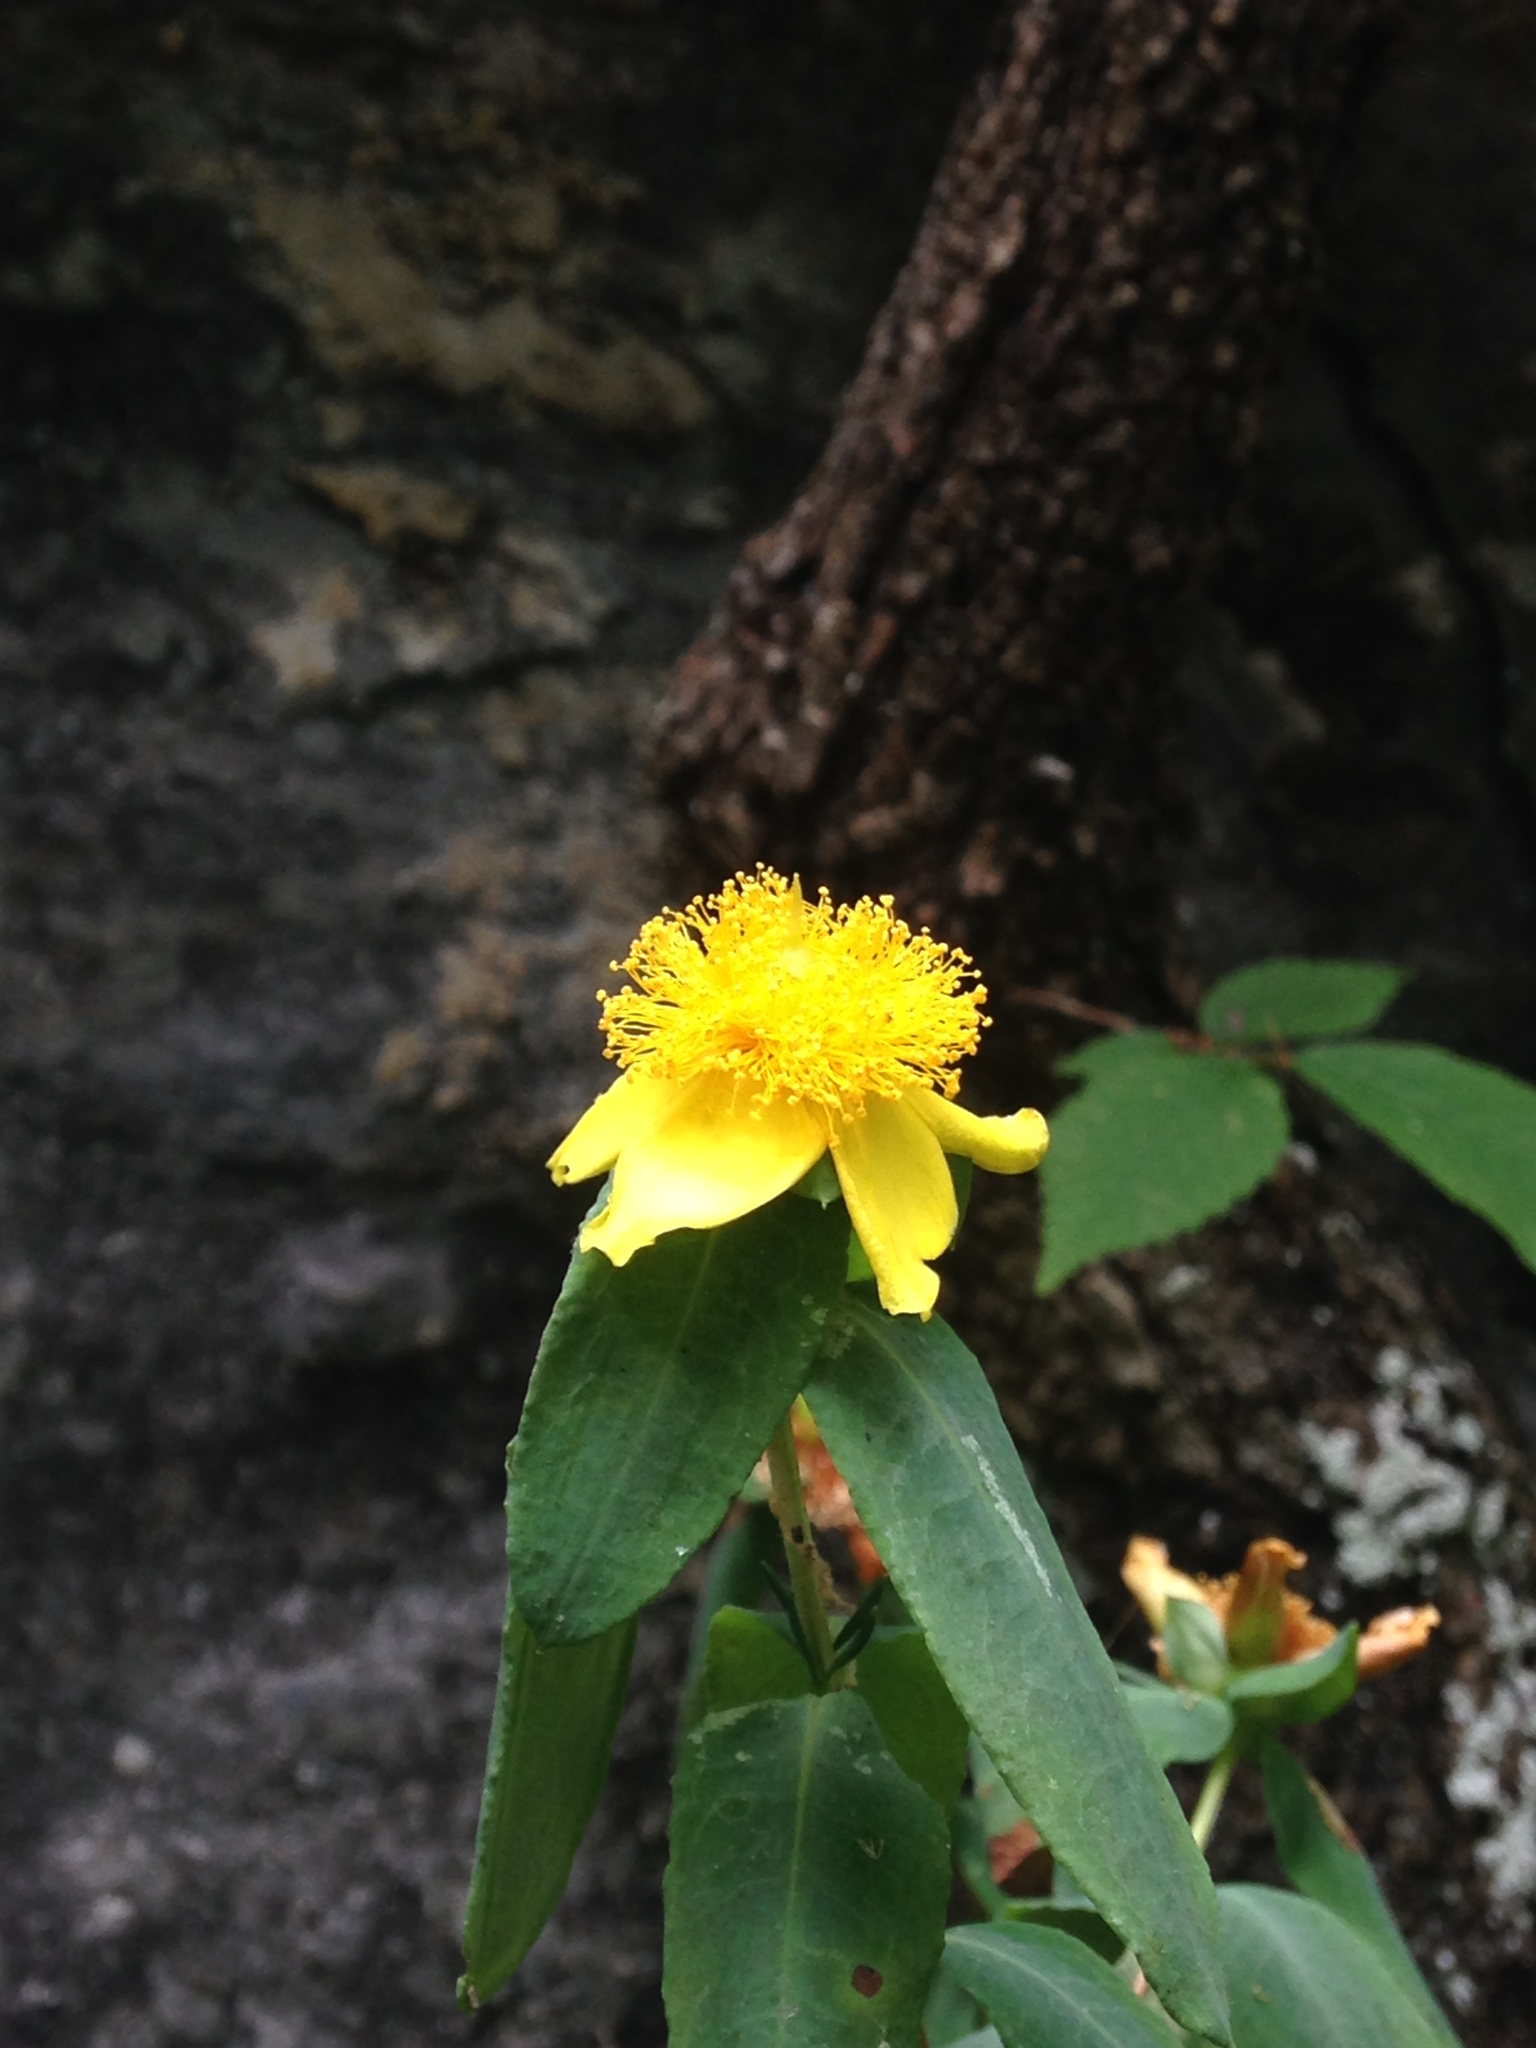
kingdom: Plantae
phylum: Tracheophyta
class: Magnoliopsida
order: Malpighiales
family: Hypericaceae
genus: Hypericum
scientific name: Hypericum frondosum
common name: Golden st. john's-wort
